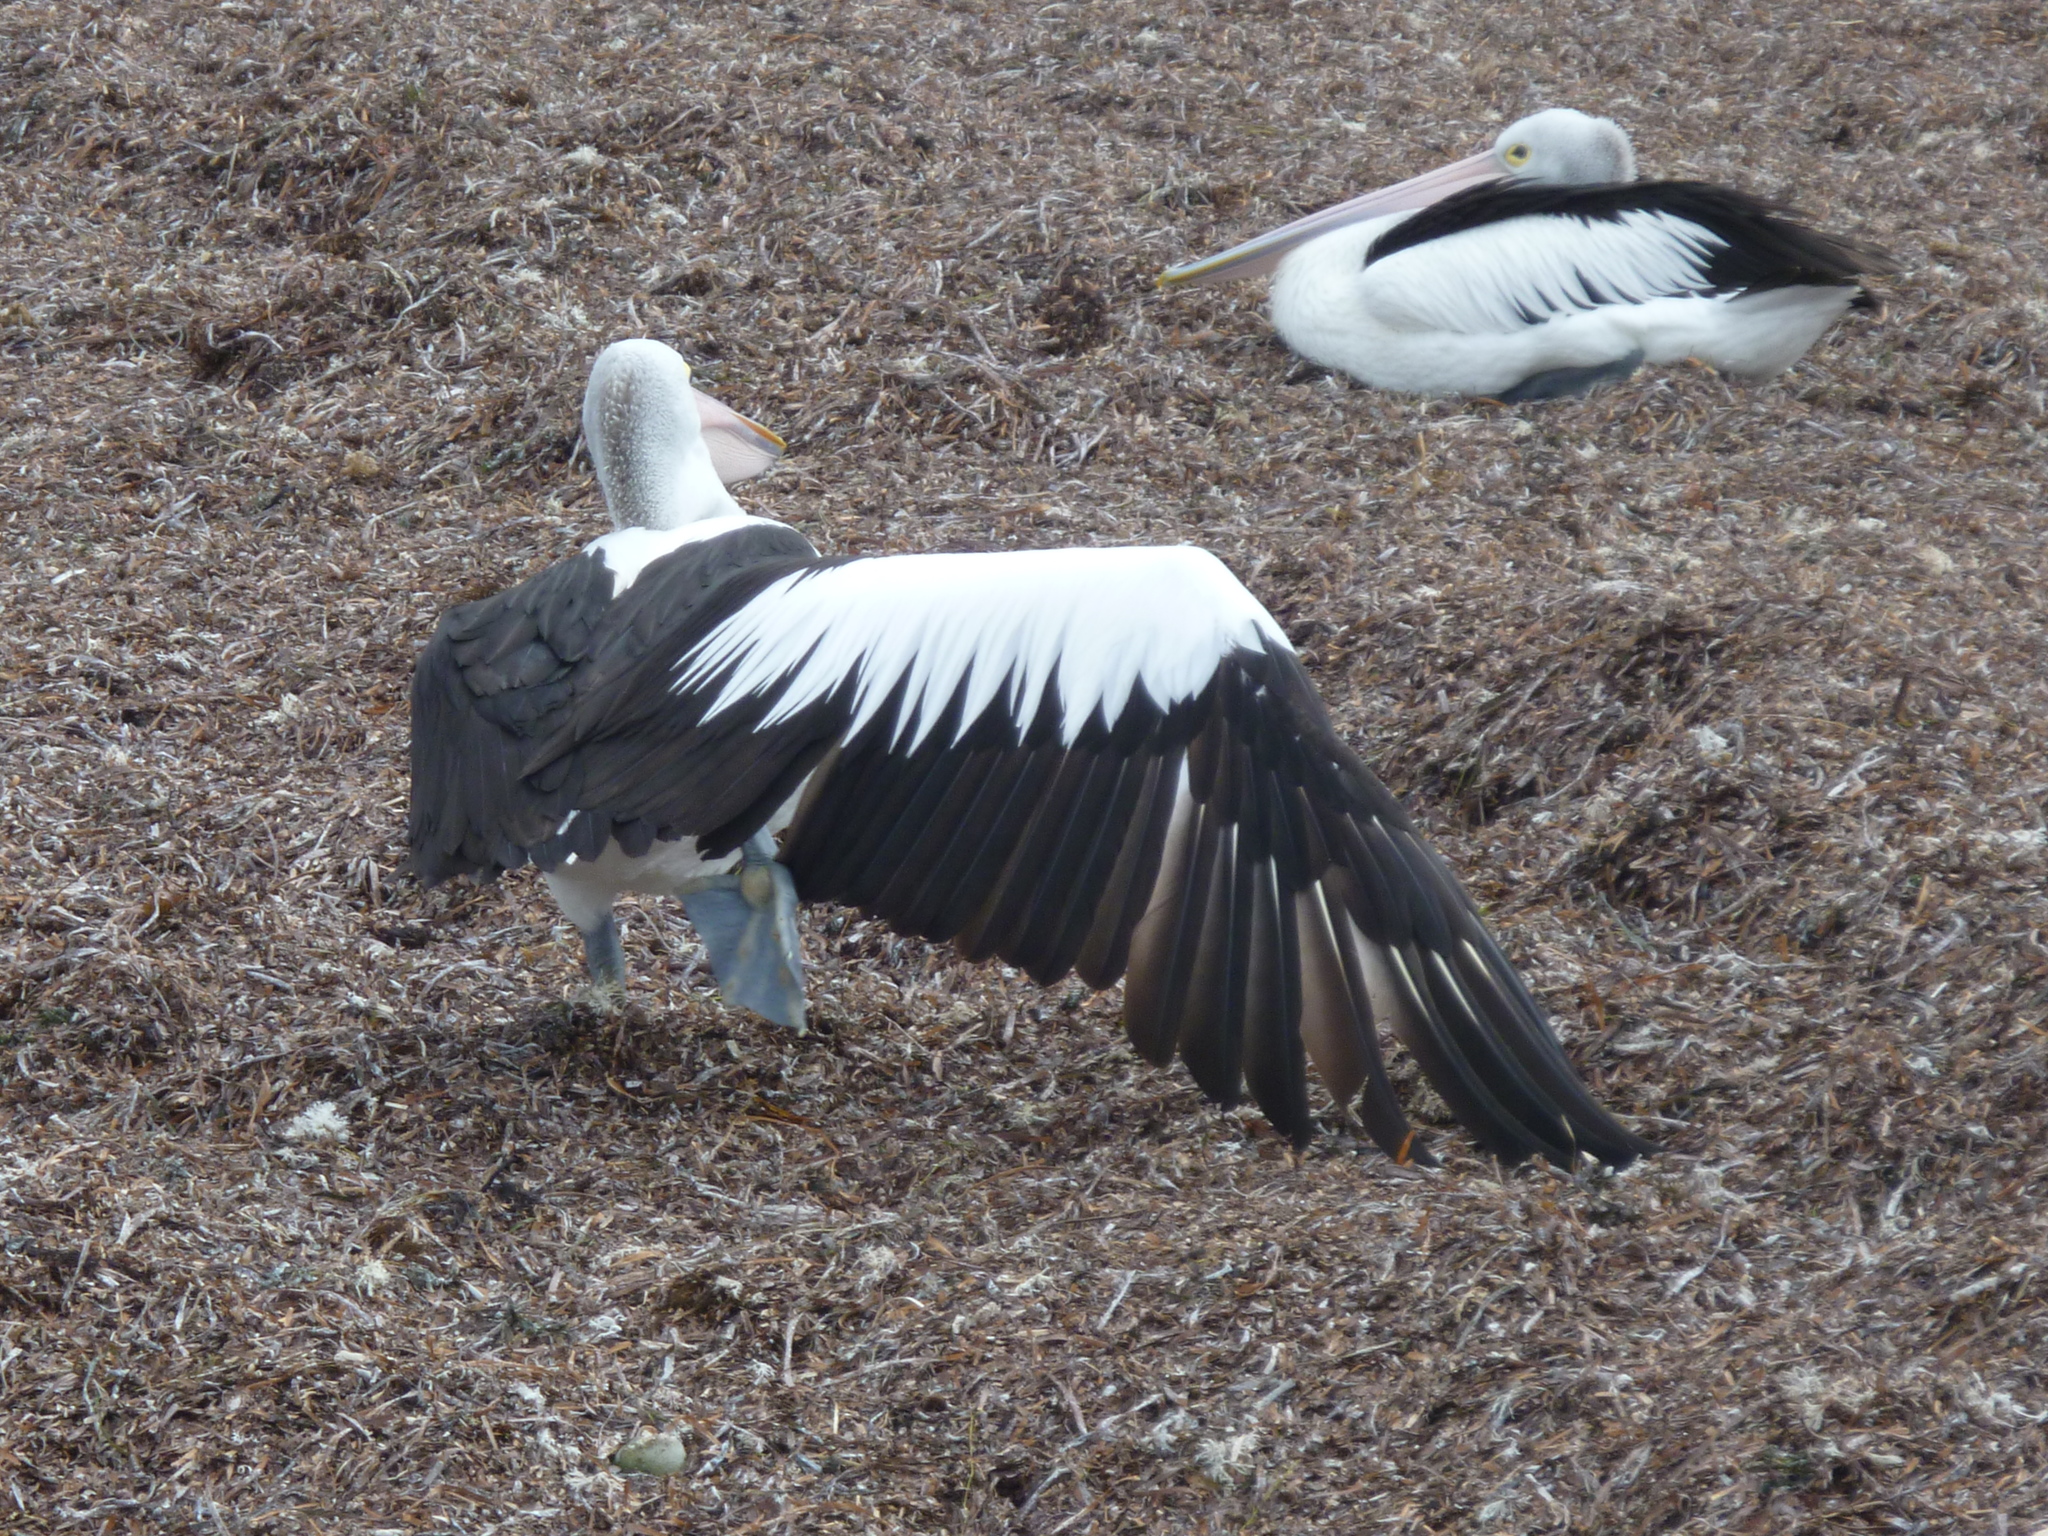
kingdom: Animalia
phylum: Chordata
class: Aves
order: Pelecaniformes
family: Pelecanidae
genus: Pelecanus
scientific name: Pelecanus conspicillatus
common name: Australian pelican
